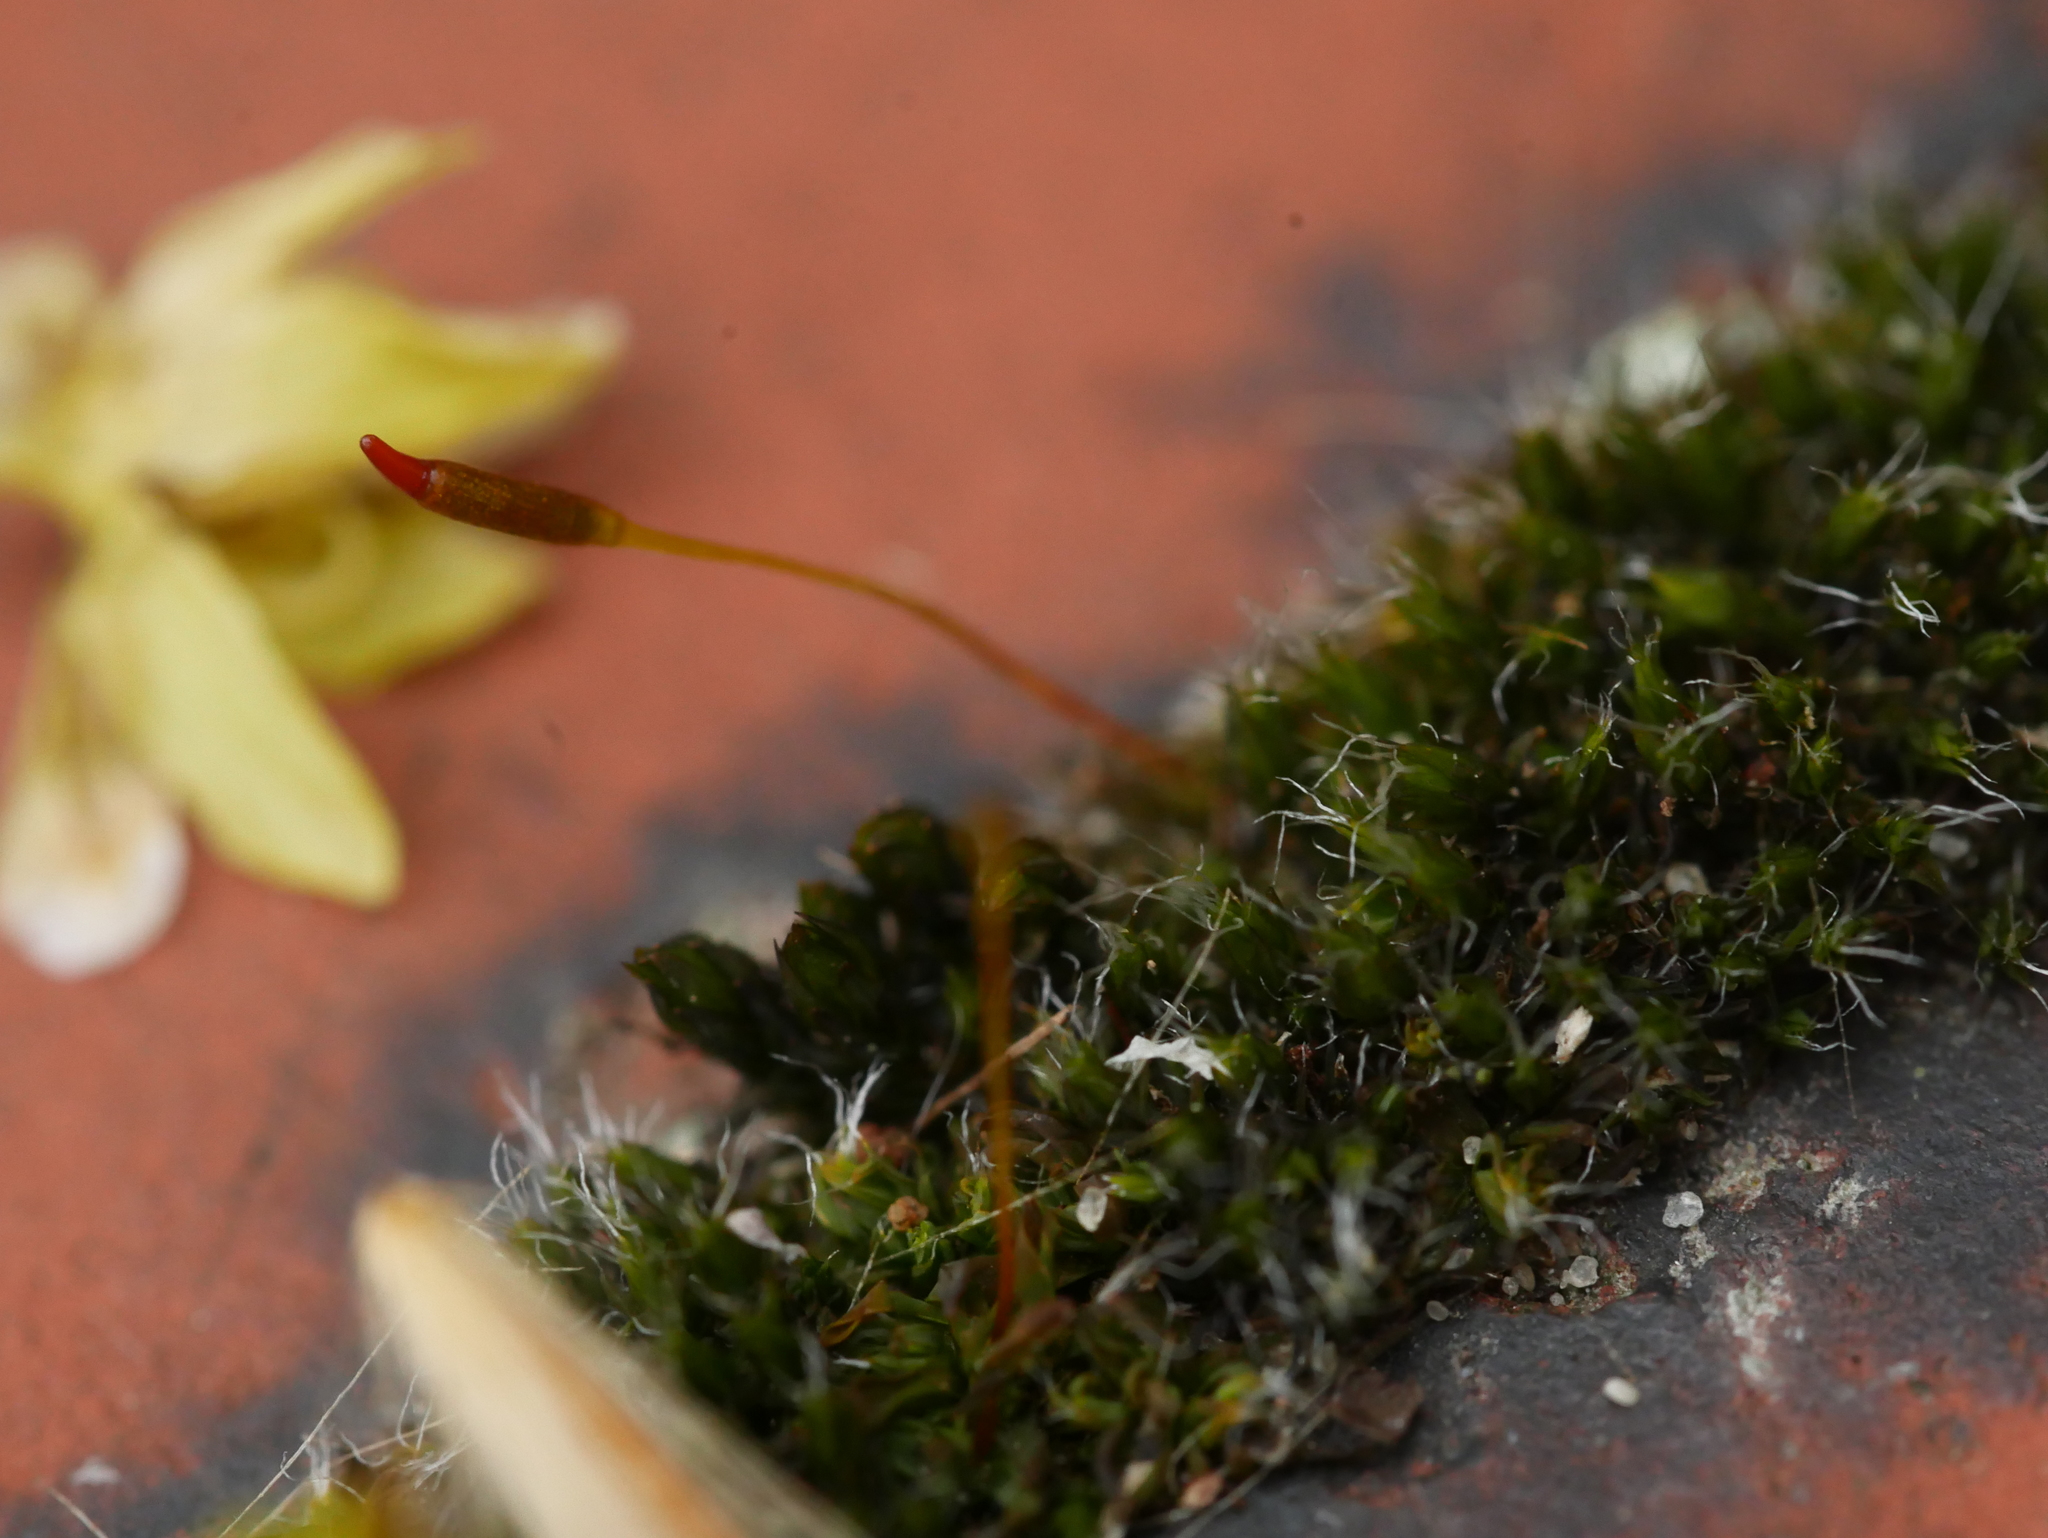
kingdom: Plantae
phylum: Bryophyta
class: Bryopsida
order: Pottiales
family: Pottiaceae
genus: Tortula
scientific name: Tortula muralis
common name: Wall screw-moss
